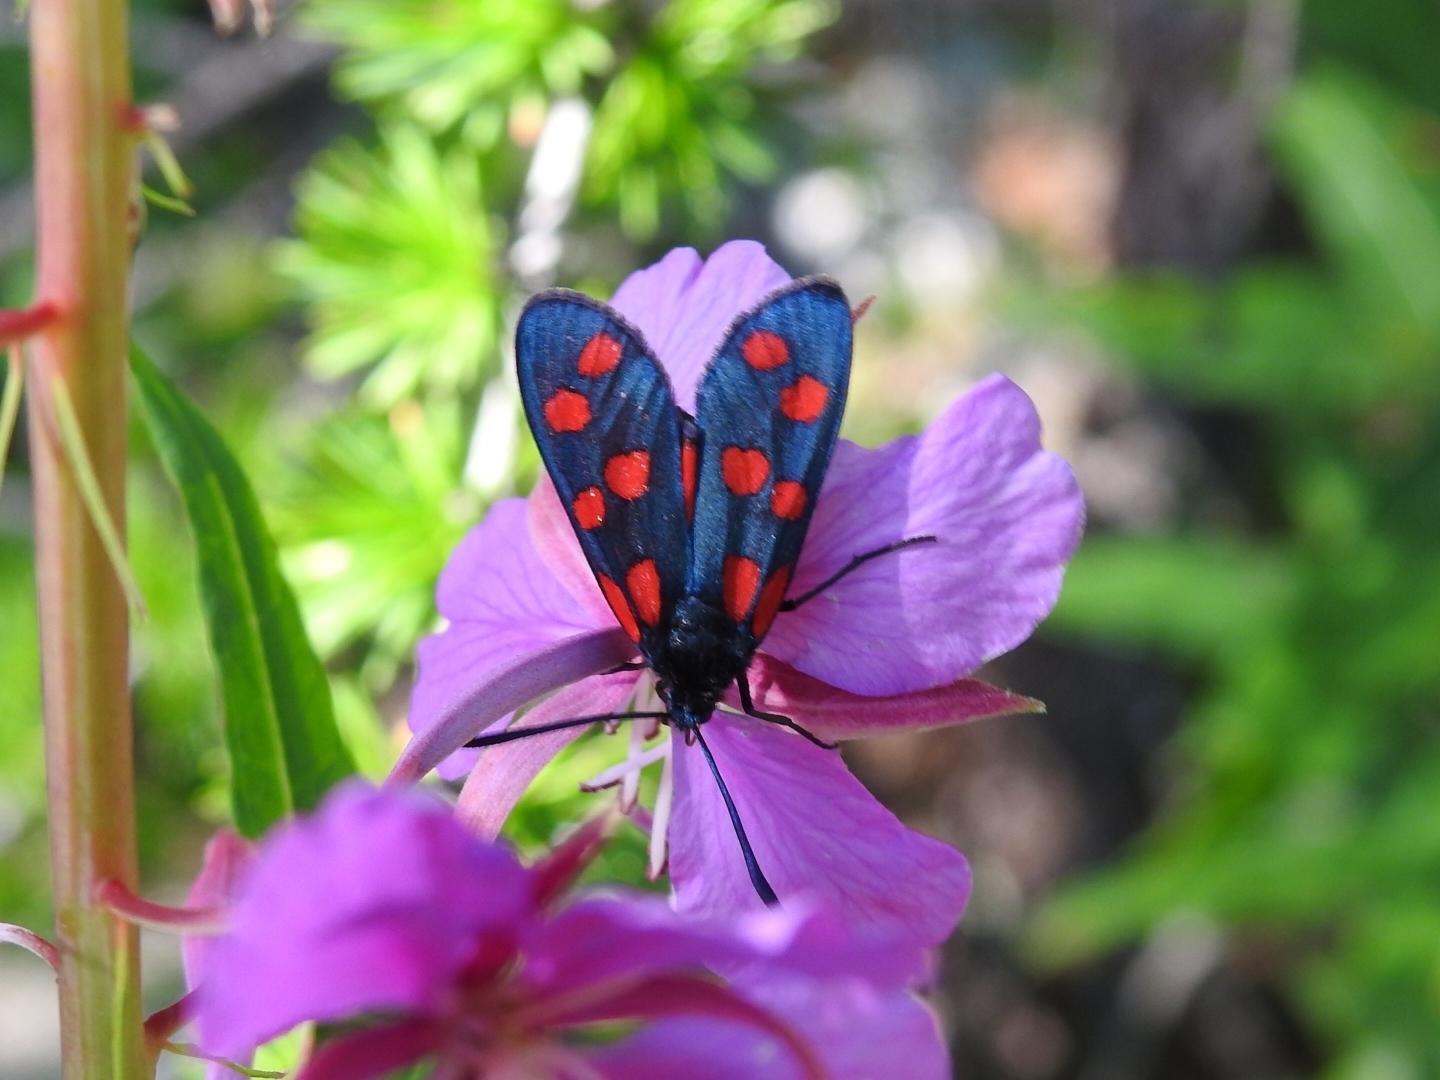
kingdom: Animalia
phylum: Arthropoda
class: Insecta
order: Lepidoptera
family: Zygaenidae
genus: Zygaena
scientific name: Zygaena transalpina
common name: Southern six spot burnet
